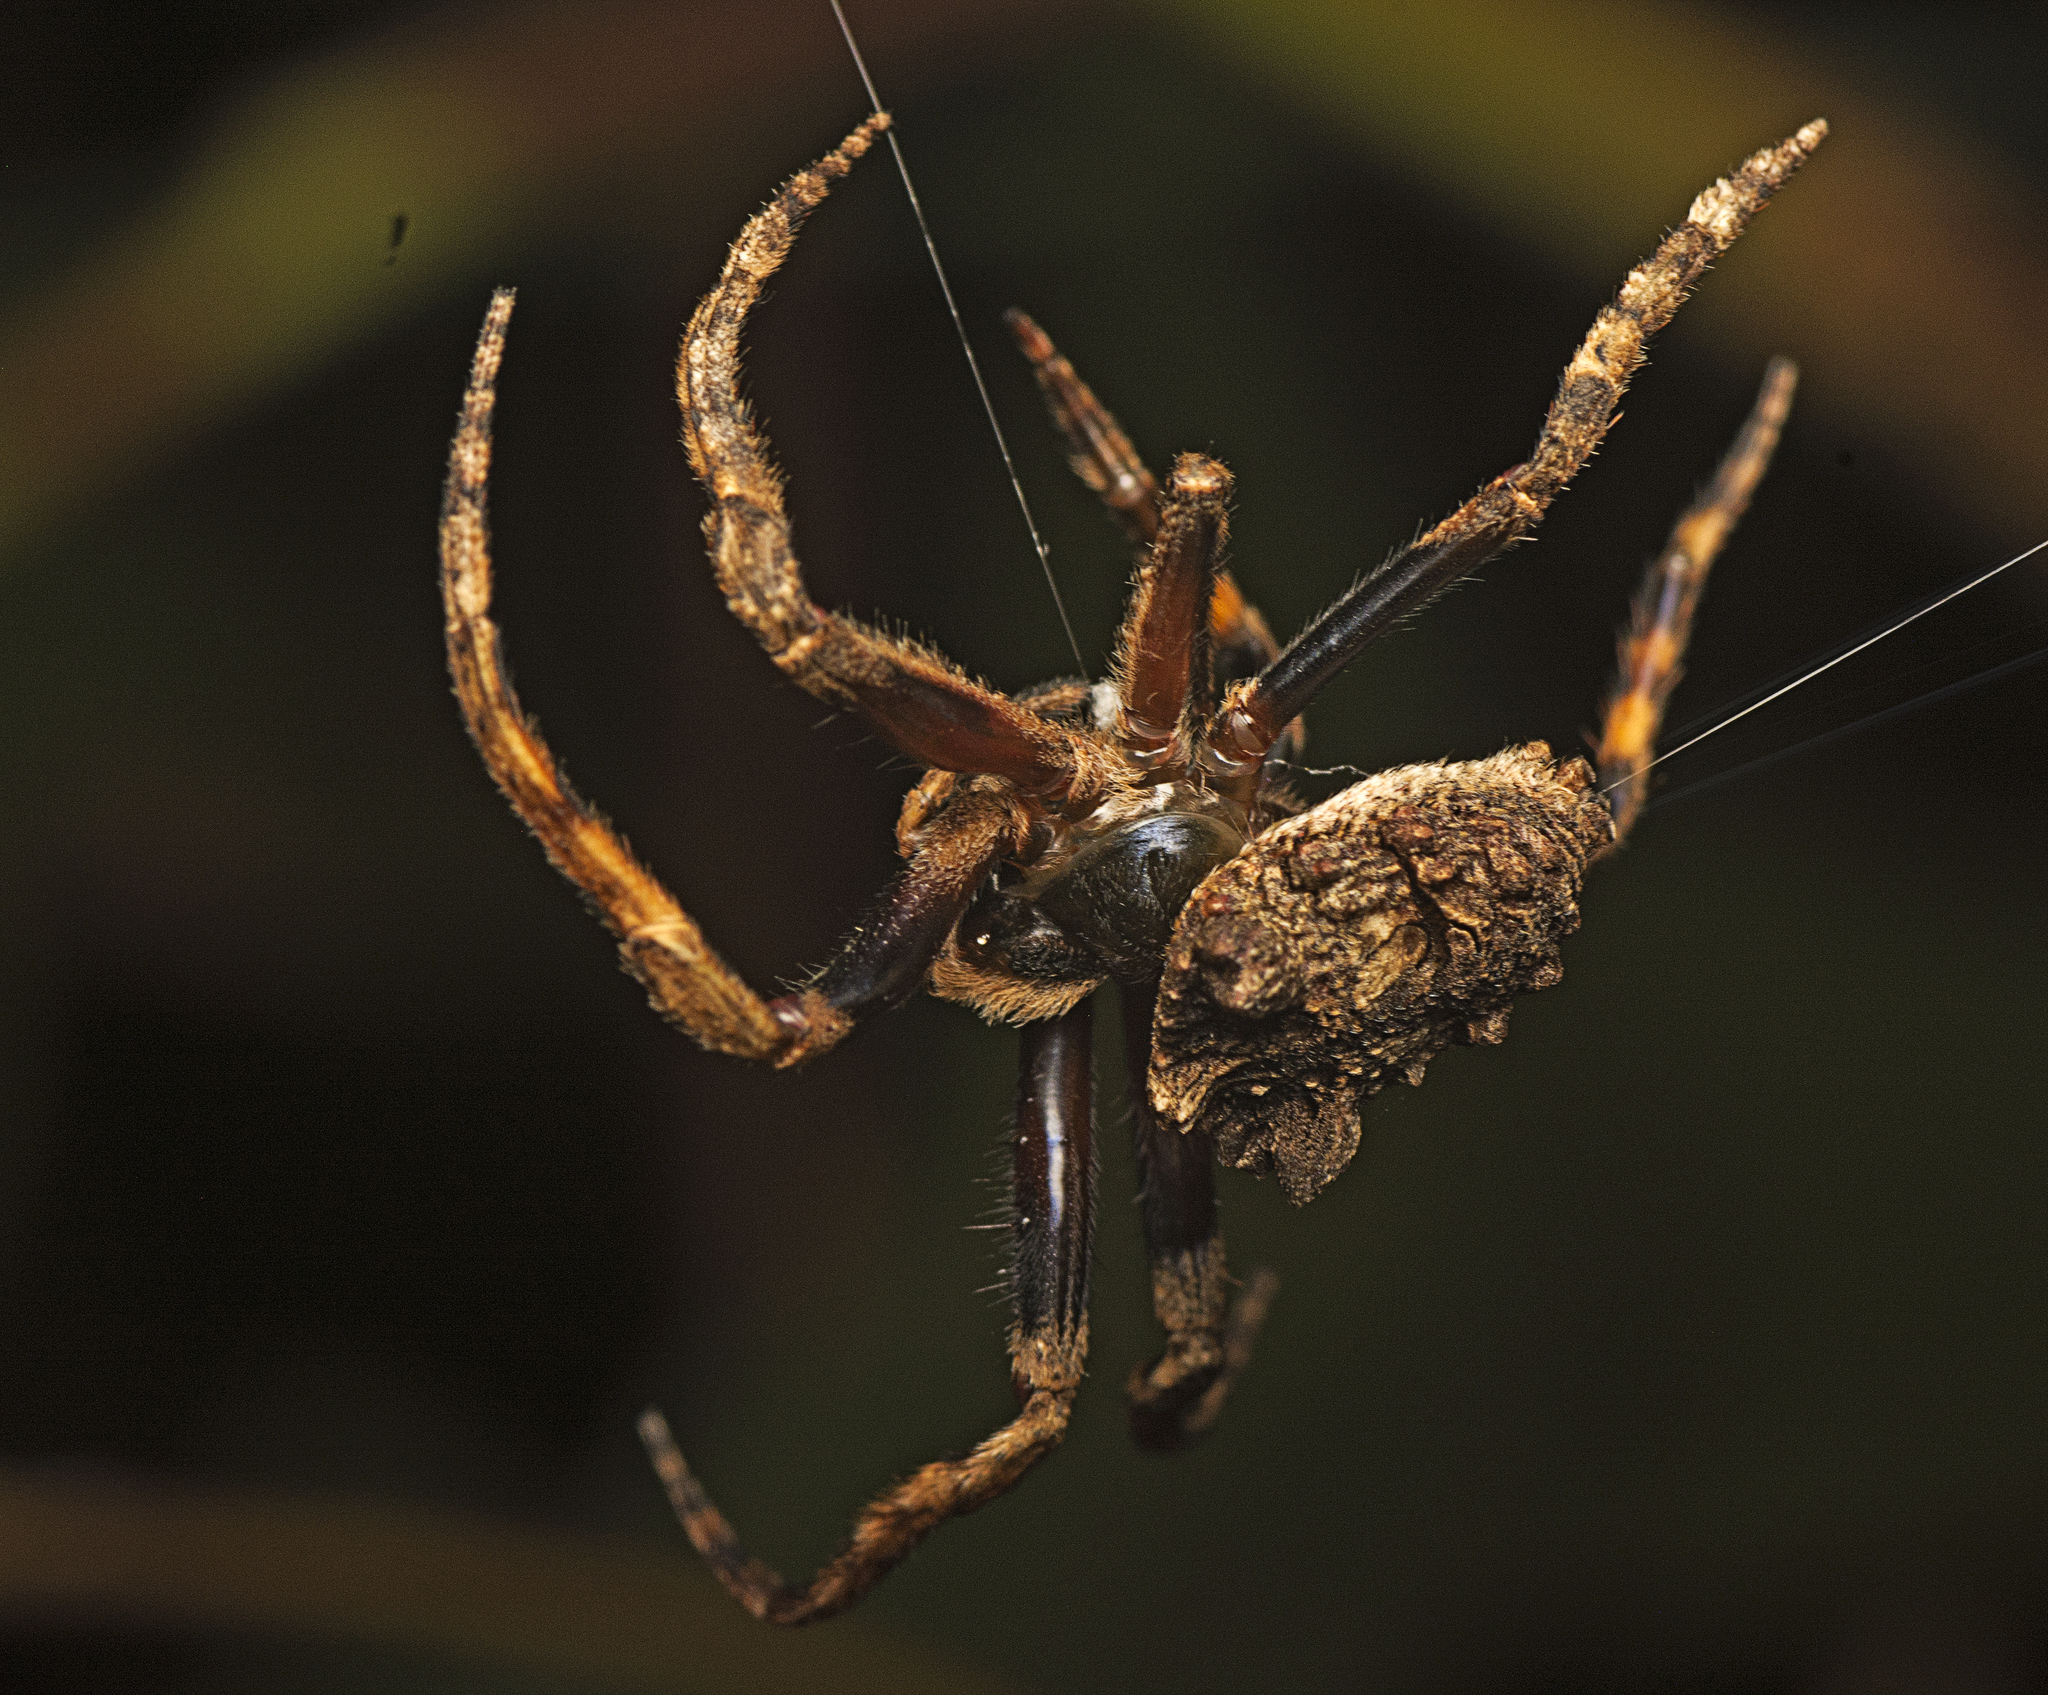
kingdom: Animalia
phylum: Arthropoda
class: Arachnida
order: Araneae
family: Araneidae
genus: Poltys
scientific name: Poltys illepidus
